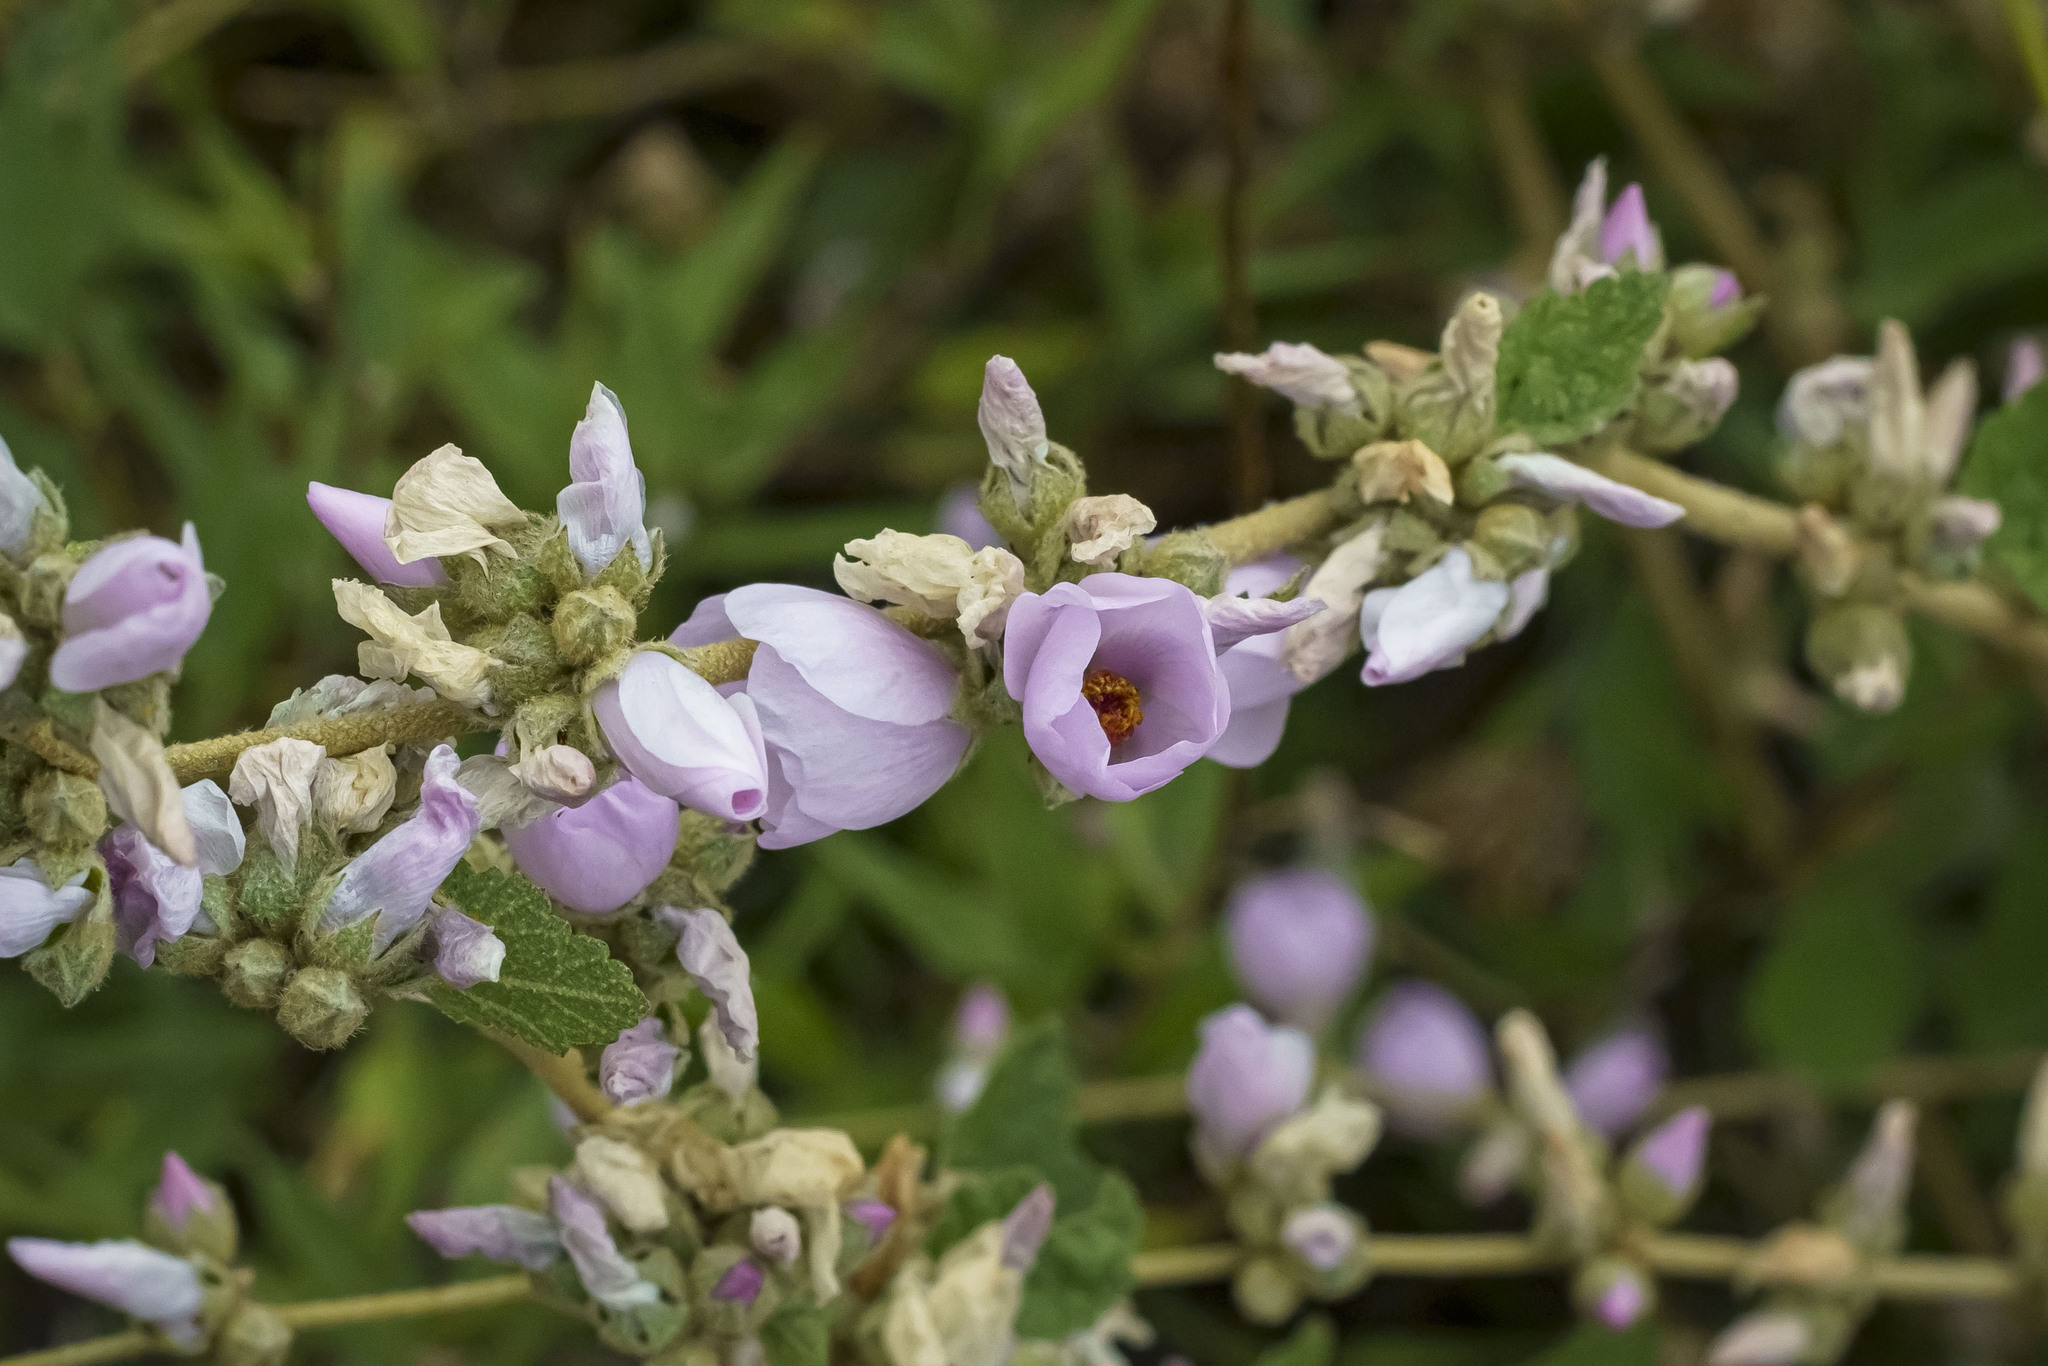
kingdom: Plantae
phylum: Tracheophyta
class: Magnoliopsida
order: Malvales
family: Malvaceae
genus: Malacothamnus
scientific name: Malacothamnus fasciculatus
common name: Sant cruz island bush-mallow
